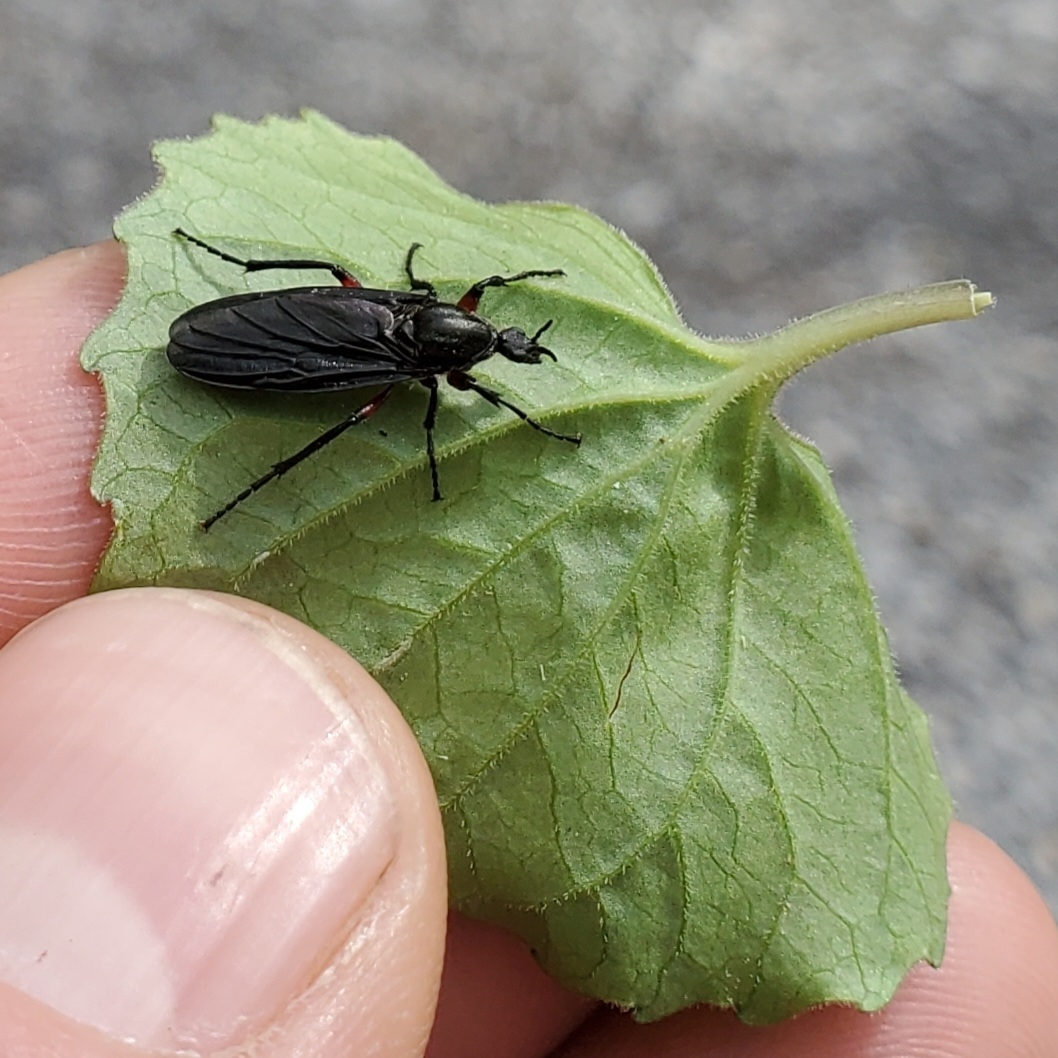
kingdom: Animalia
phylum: Arthropoda
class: Insecta
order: Diptera
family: Bibionidae
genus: Bibio
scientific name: Bibio femoratus
